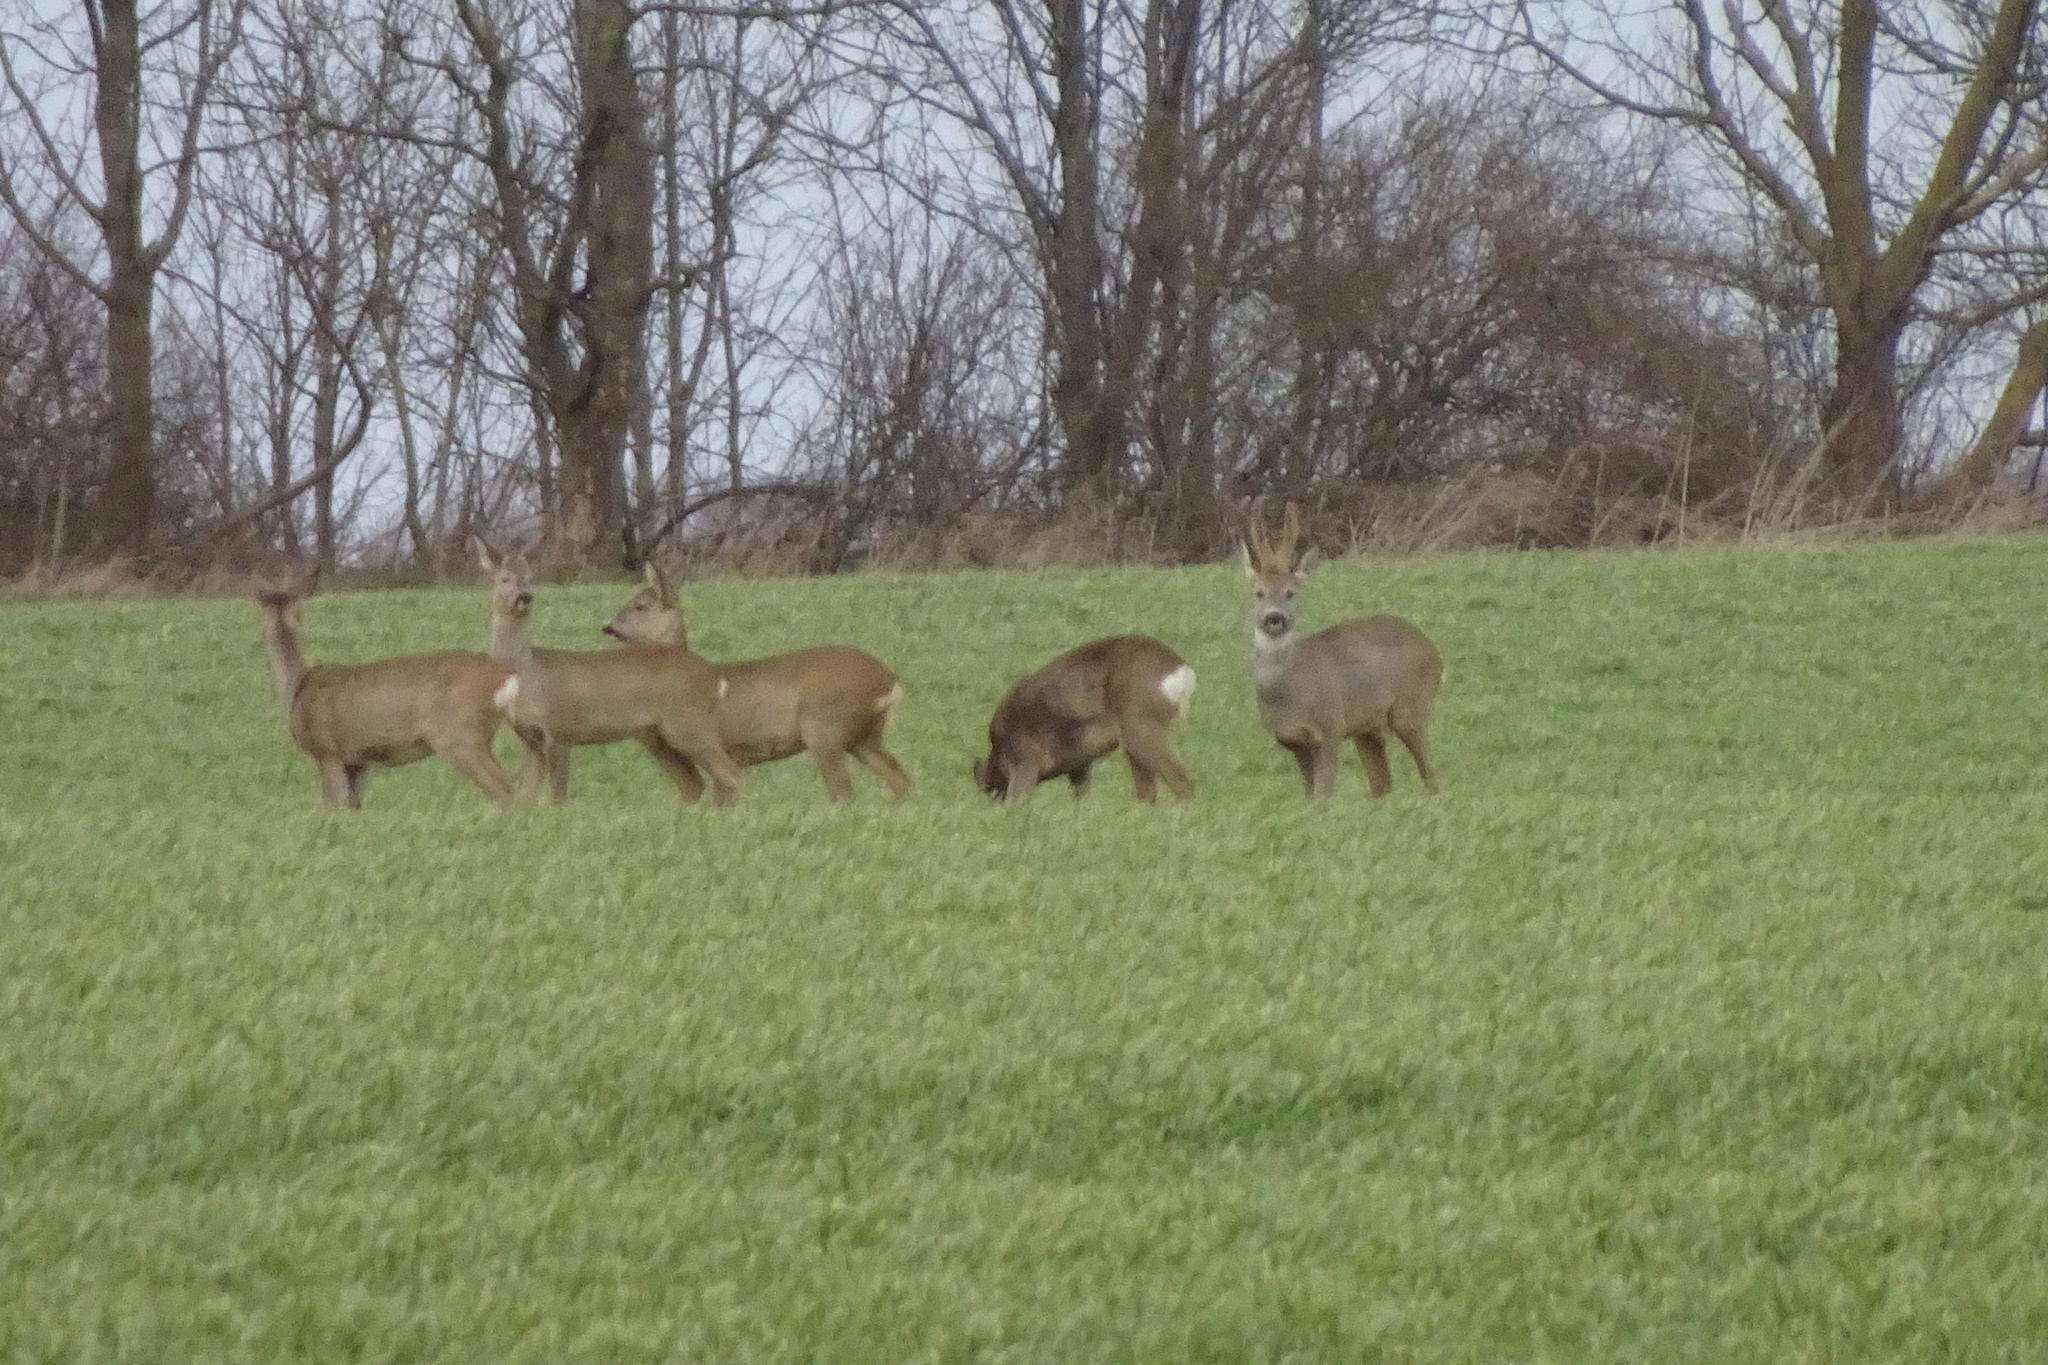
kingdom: Animalia
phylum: Chordata
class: Mammalia
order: Artiodactyla
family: Cervidae
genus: Capreolus
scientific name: Capreolus capreolus
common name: Western roe deer
